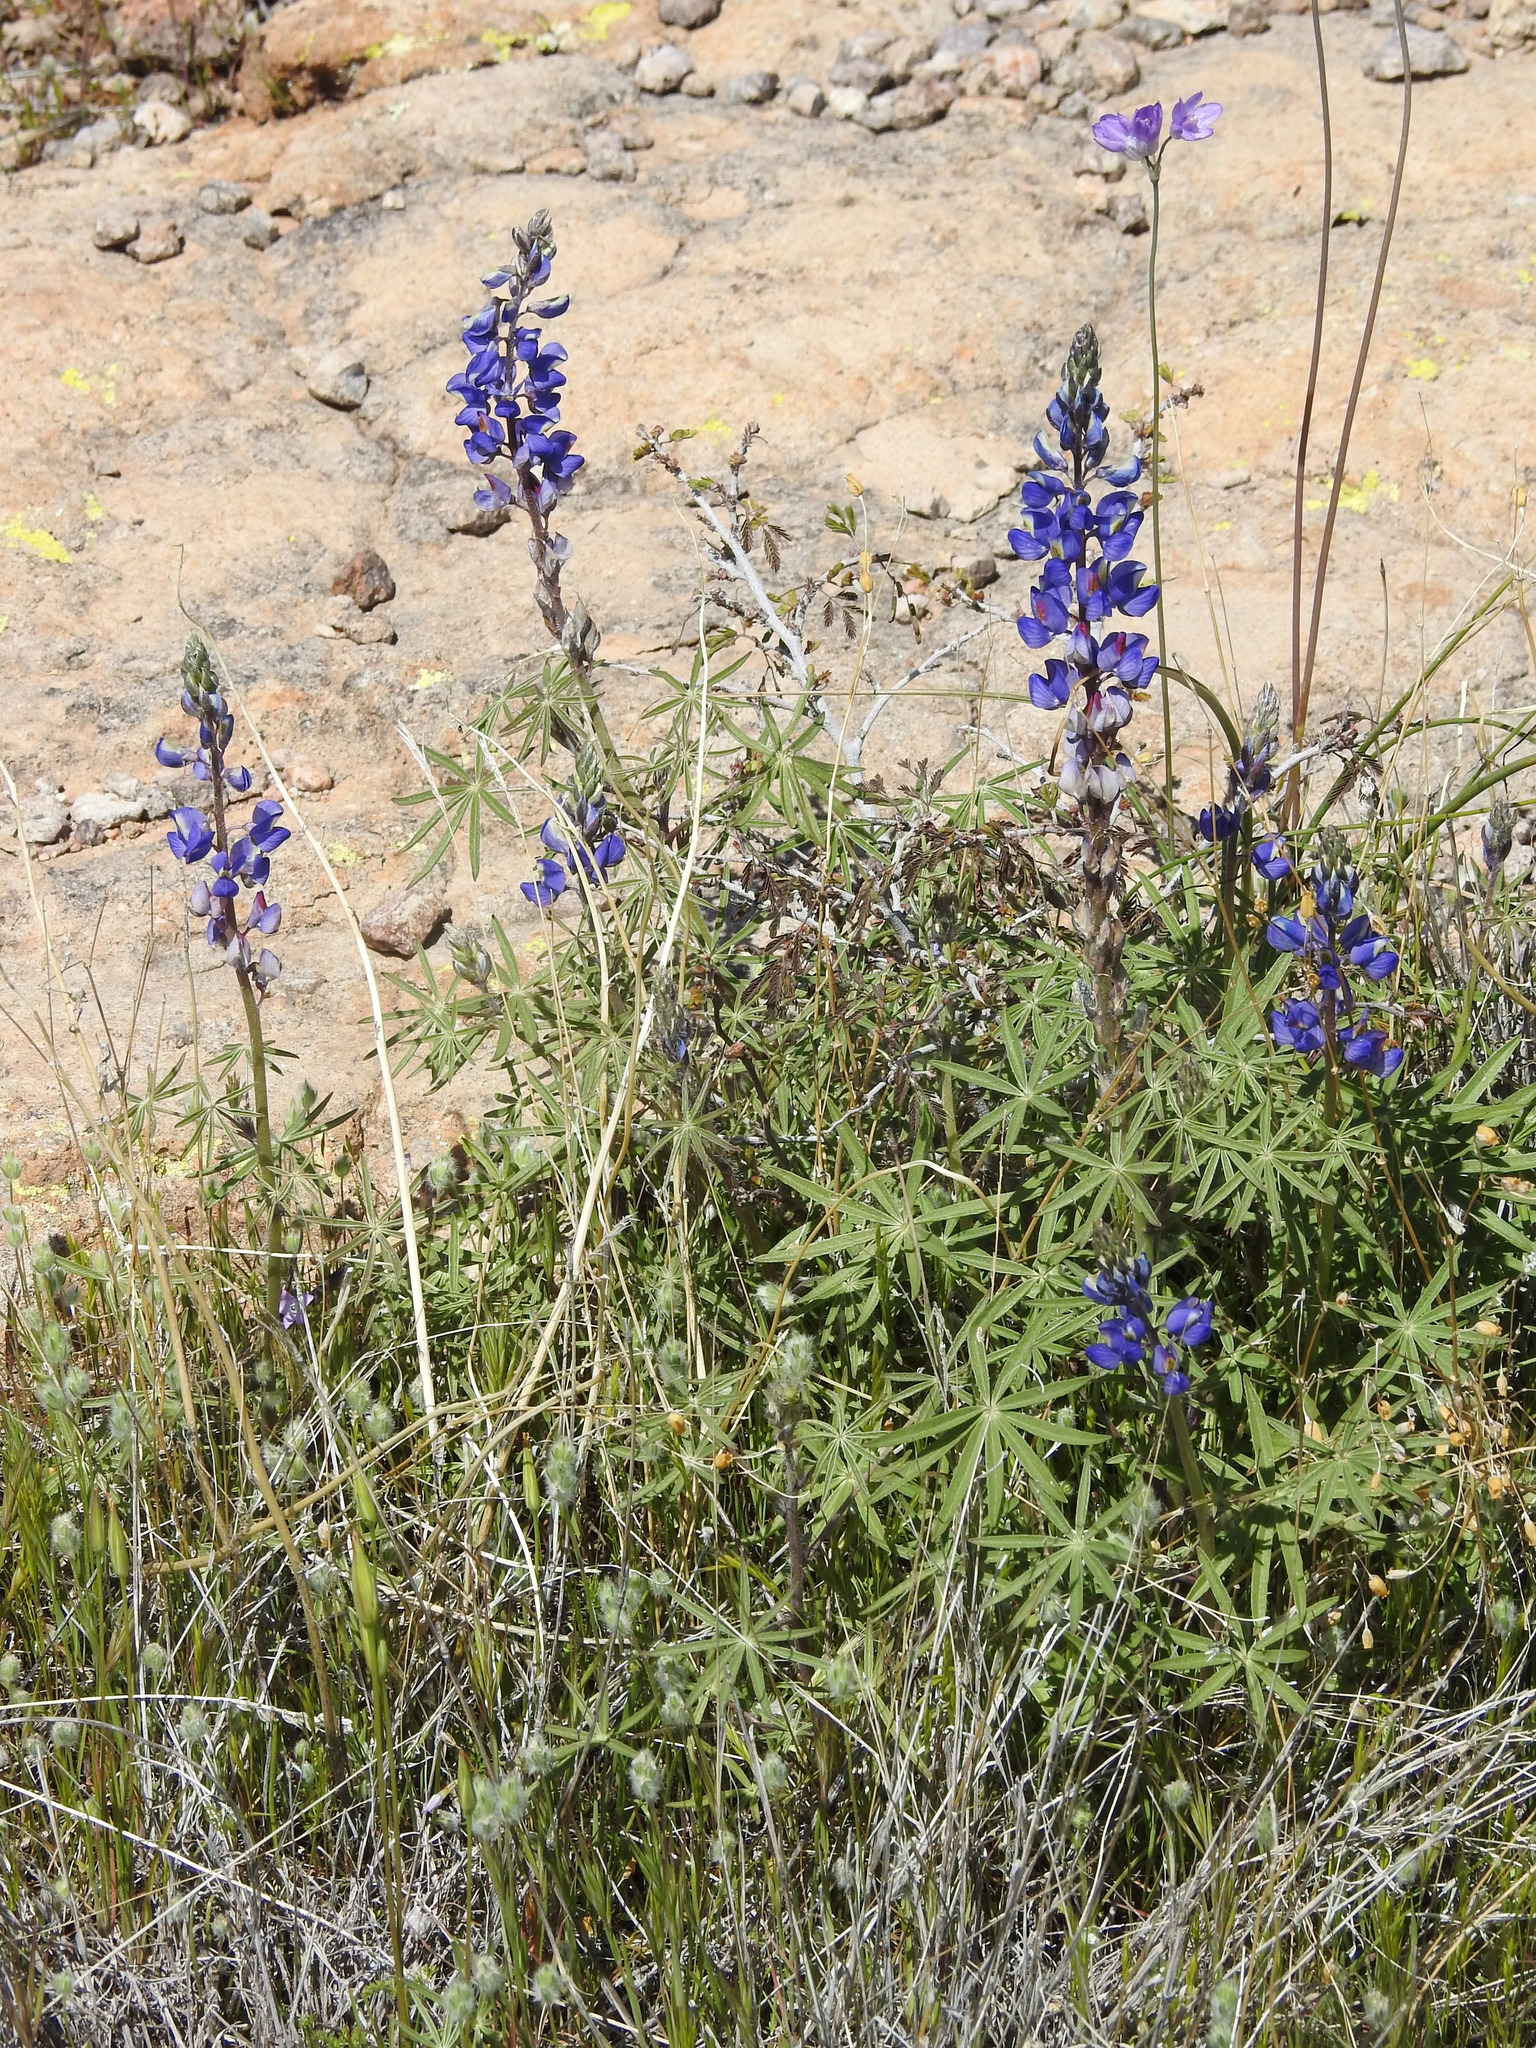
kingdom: Plantae
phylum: Tracheophyta
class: Magnoliopsida
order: Fabales
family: Fabaceae
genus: Lupinus
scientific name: Lupinus sparsiflorus
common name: Coulter's lupine
